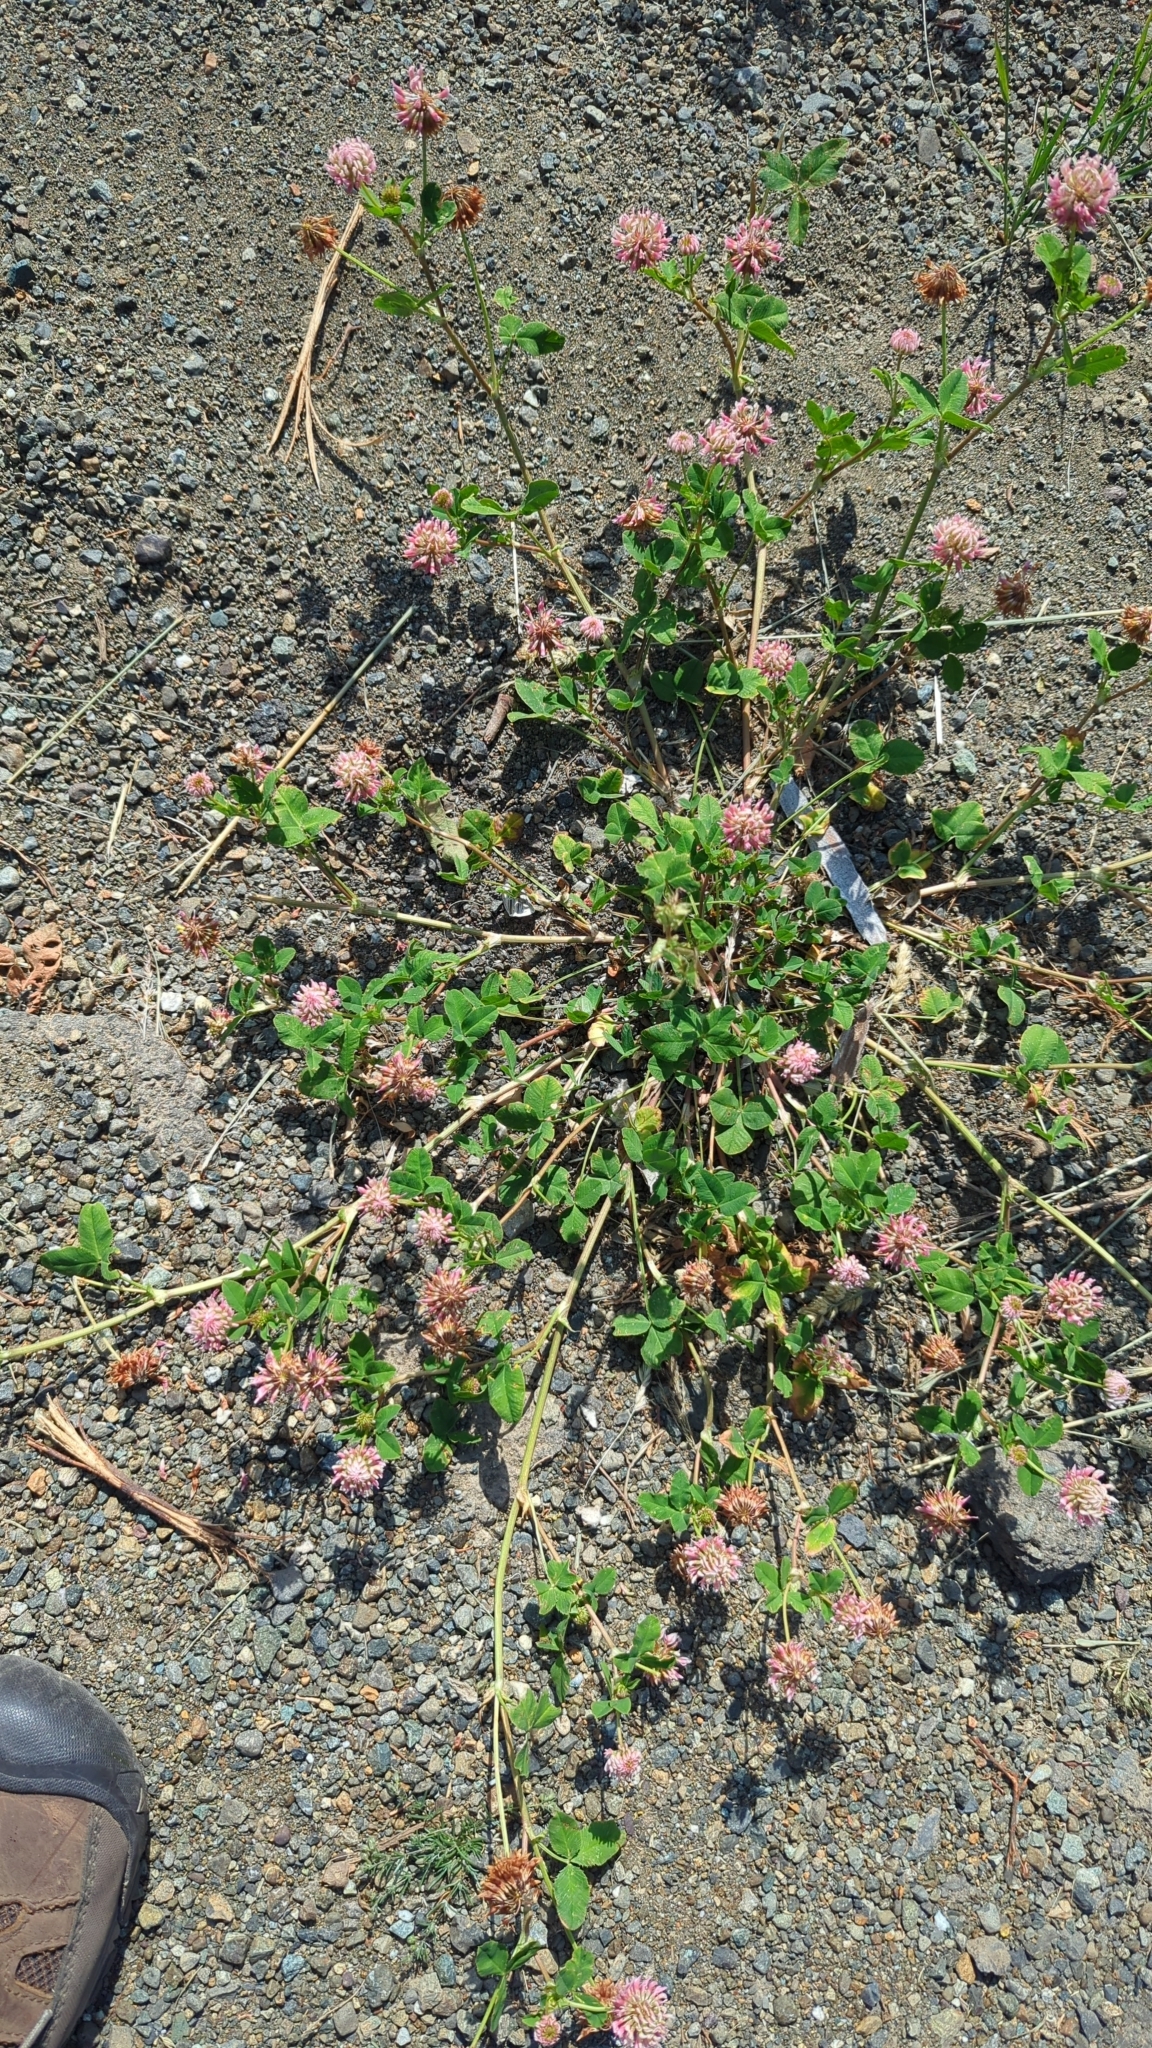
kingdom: Plantae
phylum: Tracheophyta
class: Magnoliopsida
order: Fabales
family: Fabaceae
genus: Trifolium
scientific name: Trifolium hybridum
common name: Alsike clover
